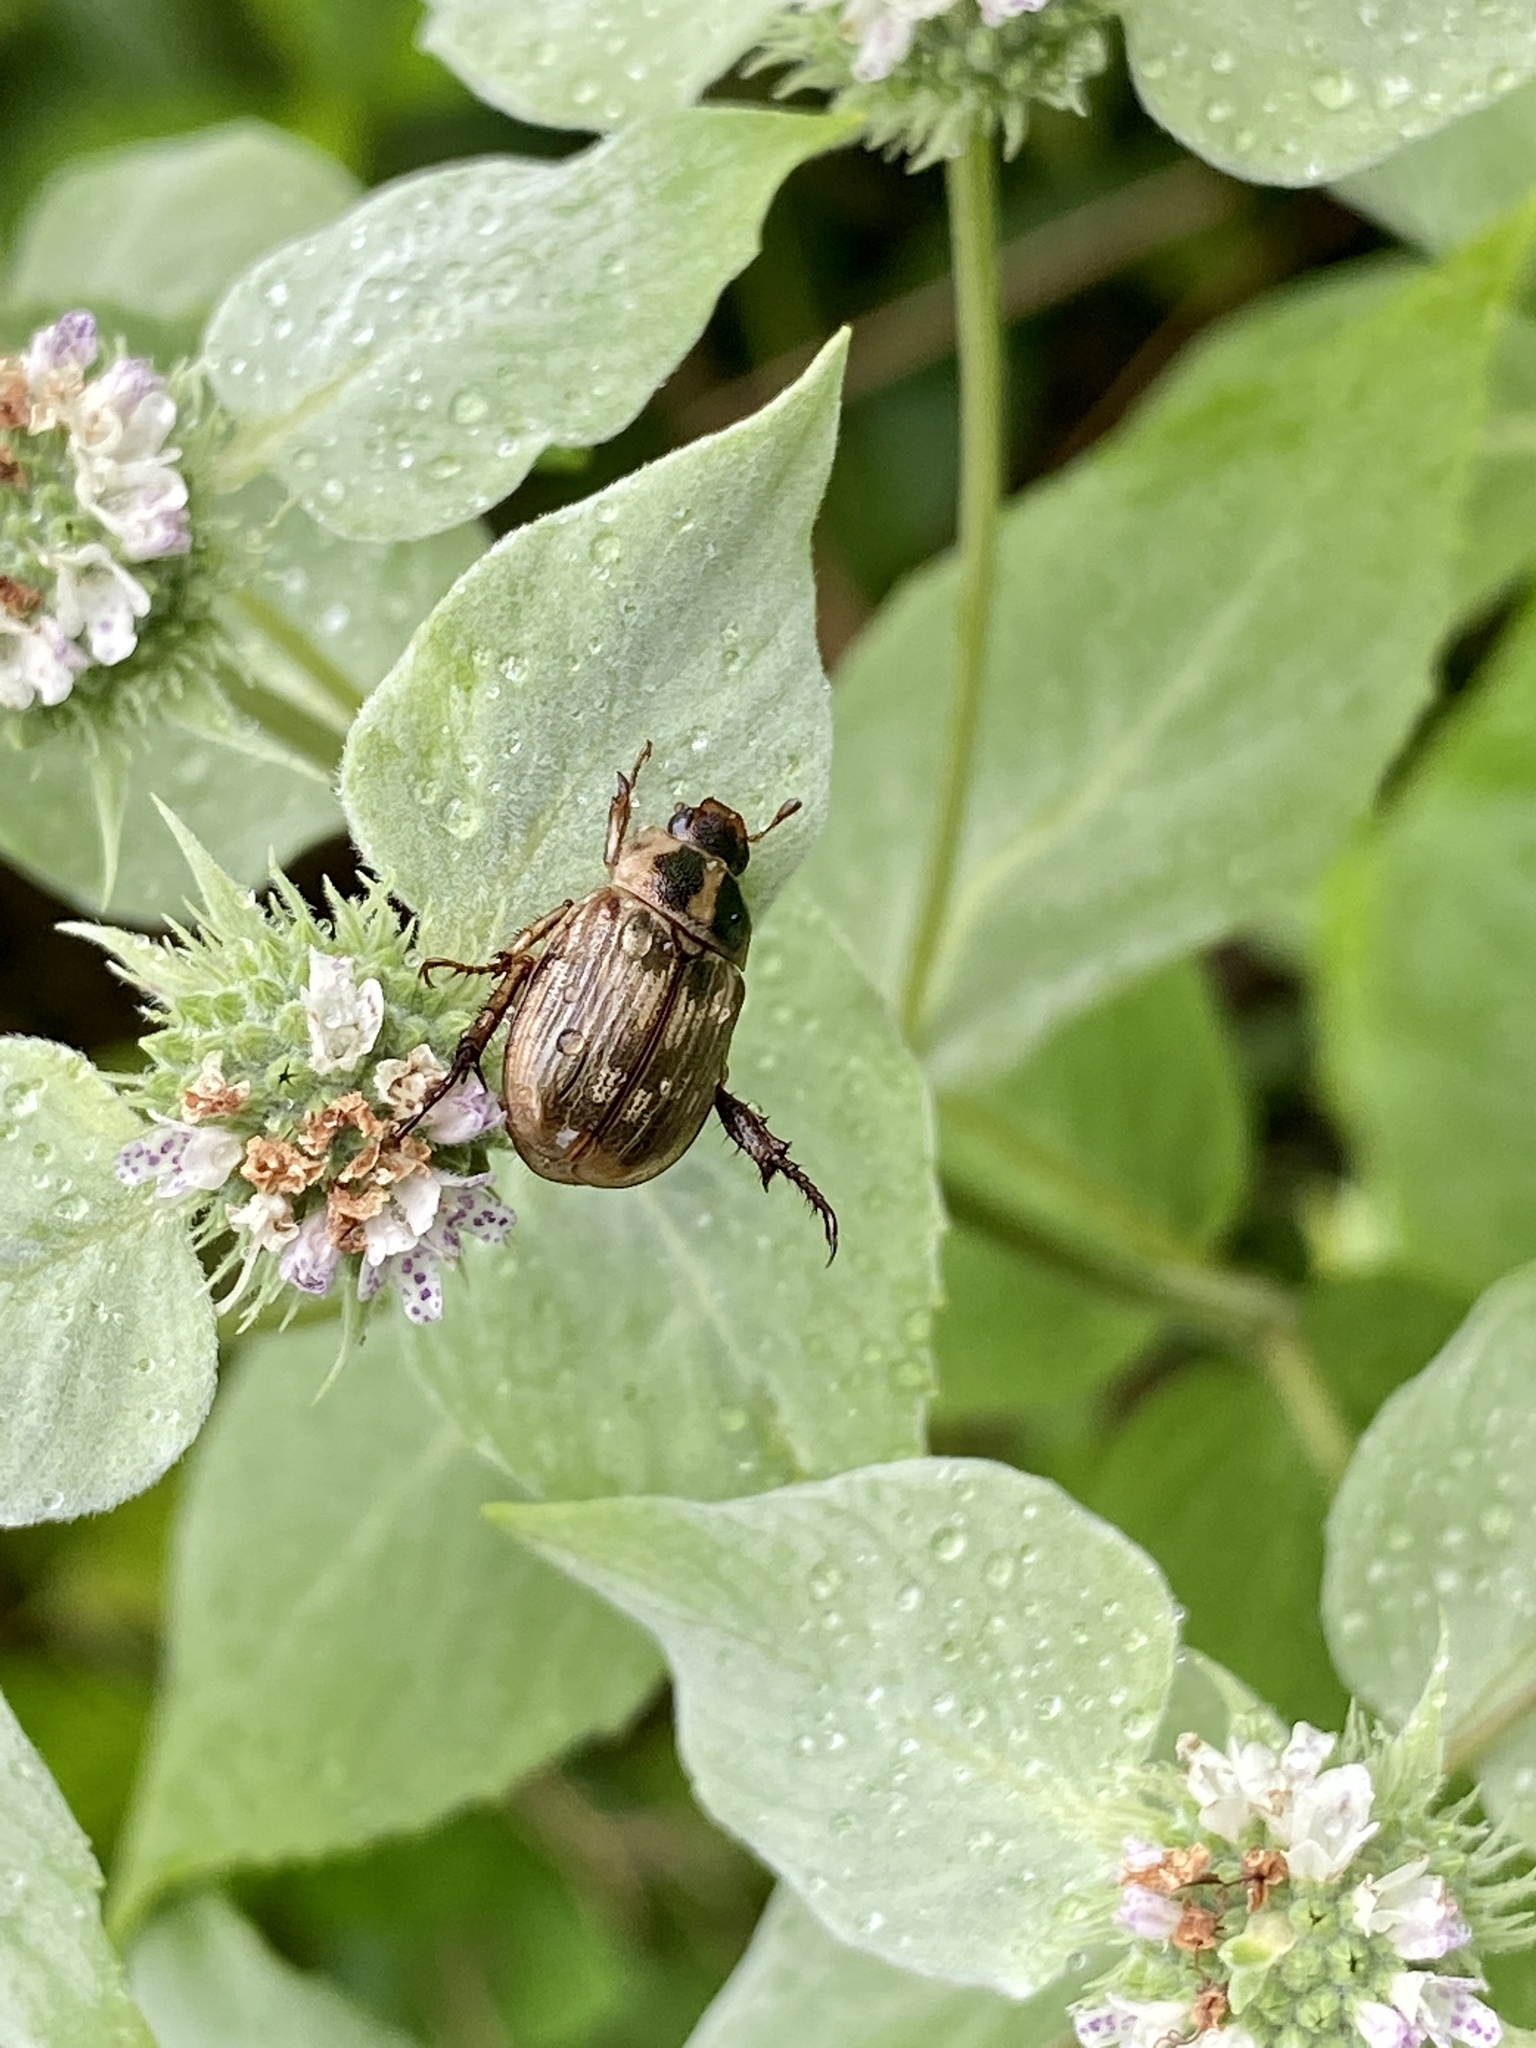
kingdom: Animalia
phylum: Arthropoda
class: Insecta
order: Coleoptera
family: Scarabaeidae
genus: Exomala
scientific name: Exomala orientalis
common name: Oriental beetle
